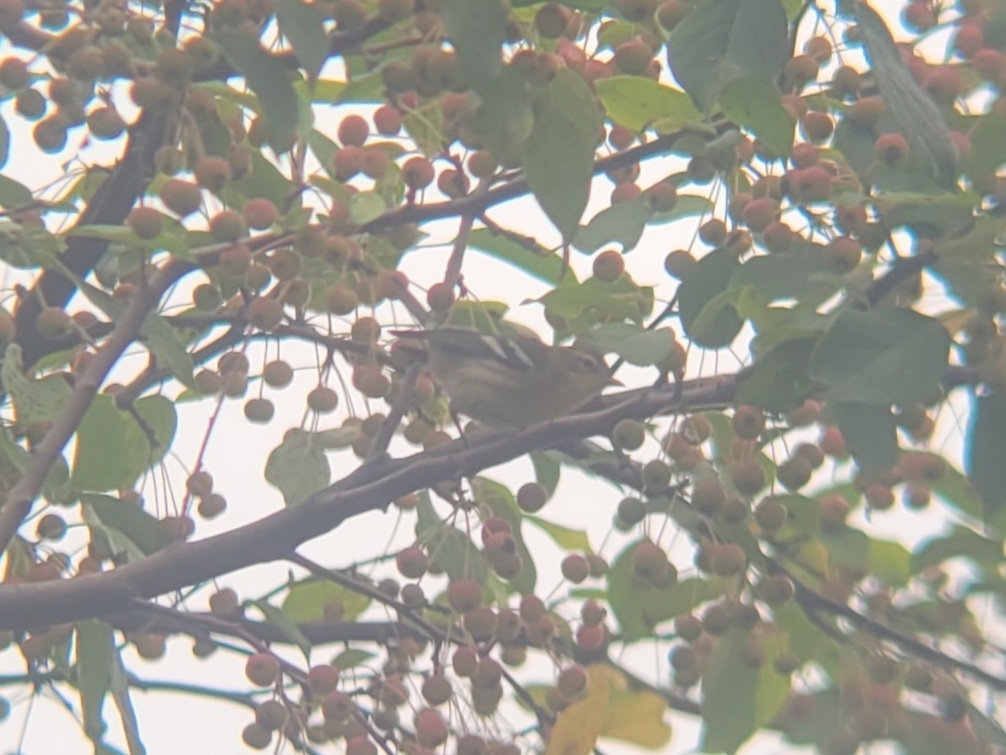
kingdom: Animalia
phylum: Chordata
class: Aves
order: Passeriformes
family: Parulidae
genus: Setophaga
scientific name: Setophaga fusca
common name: Blackburnian warbler
